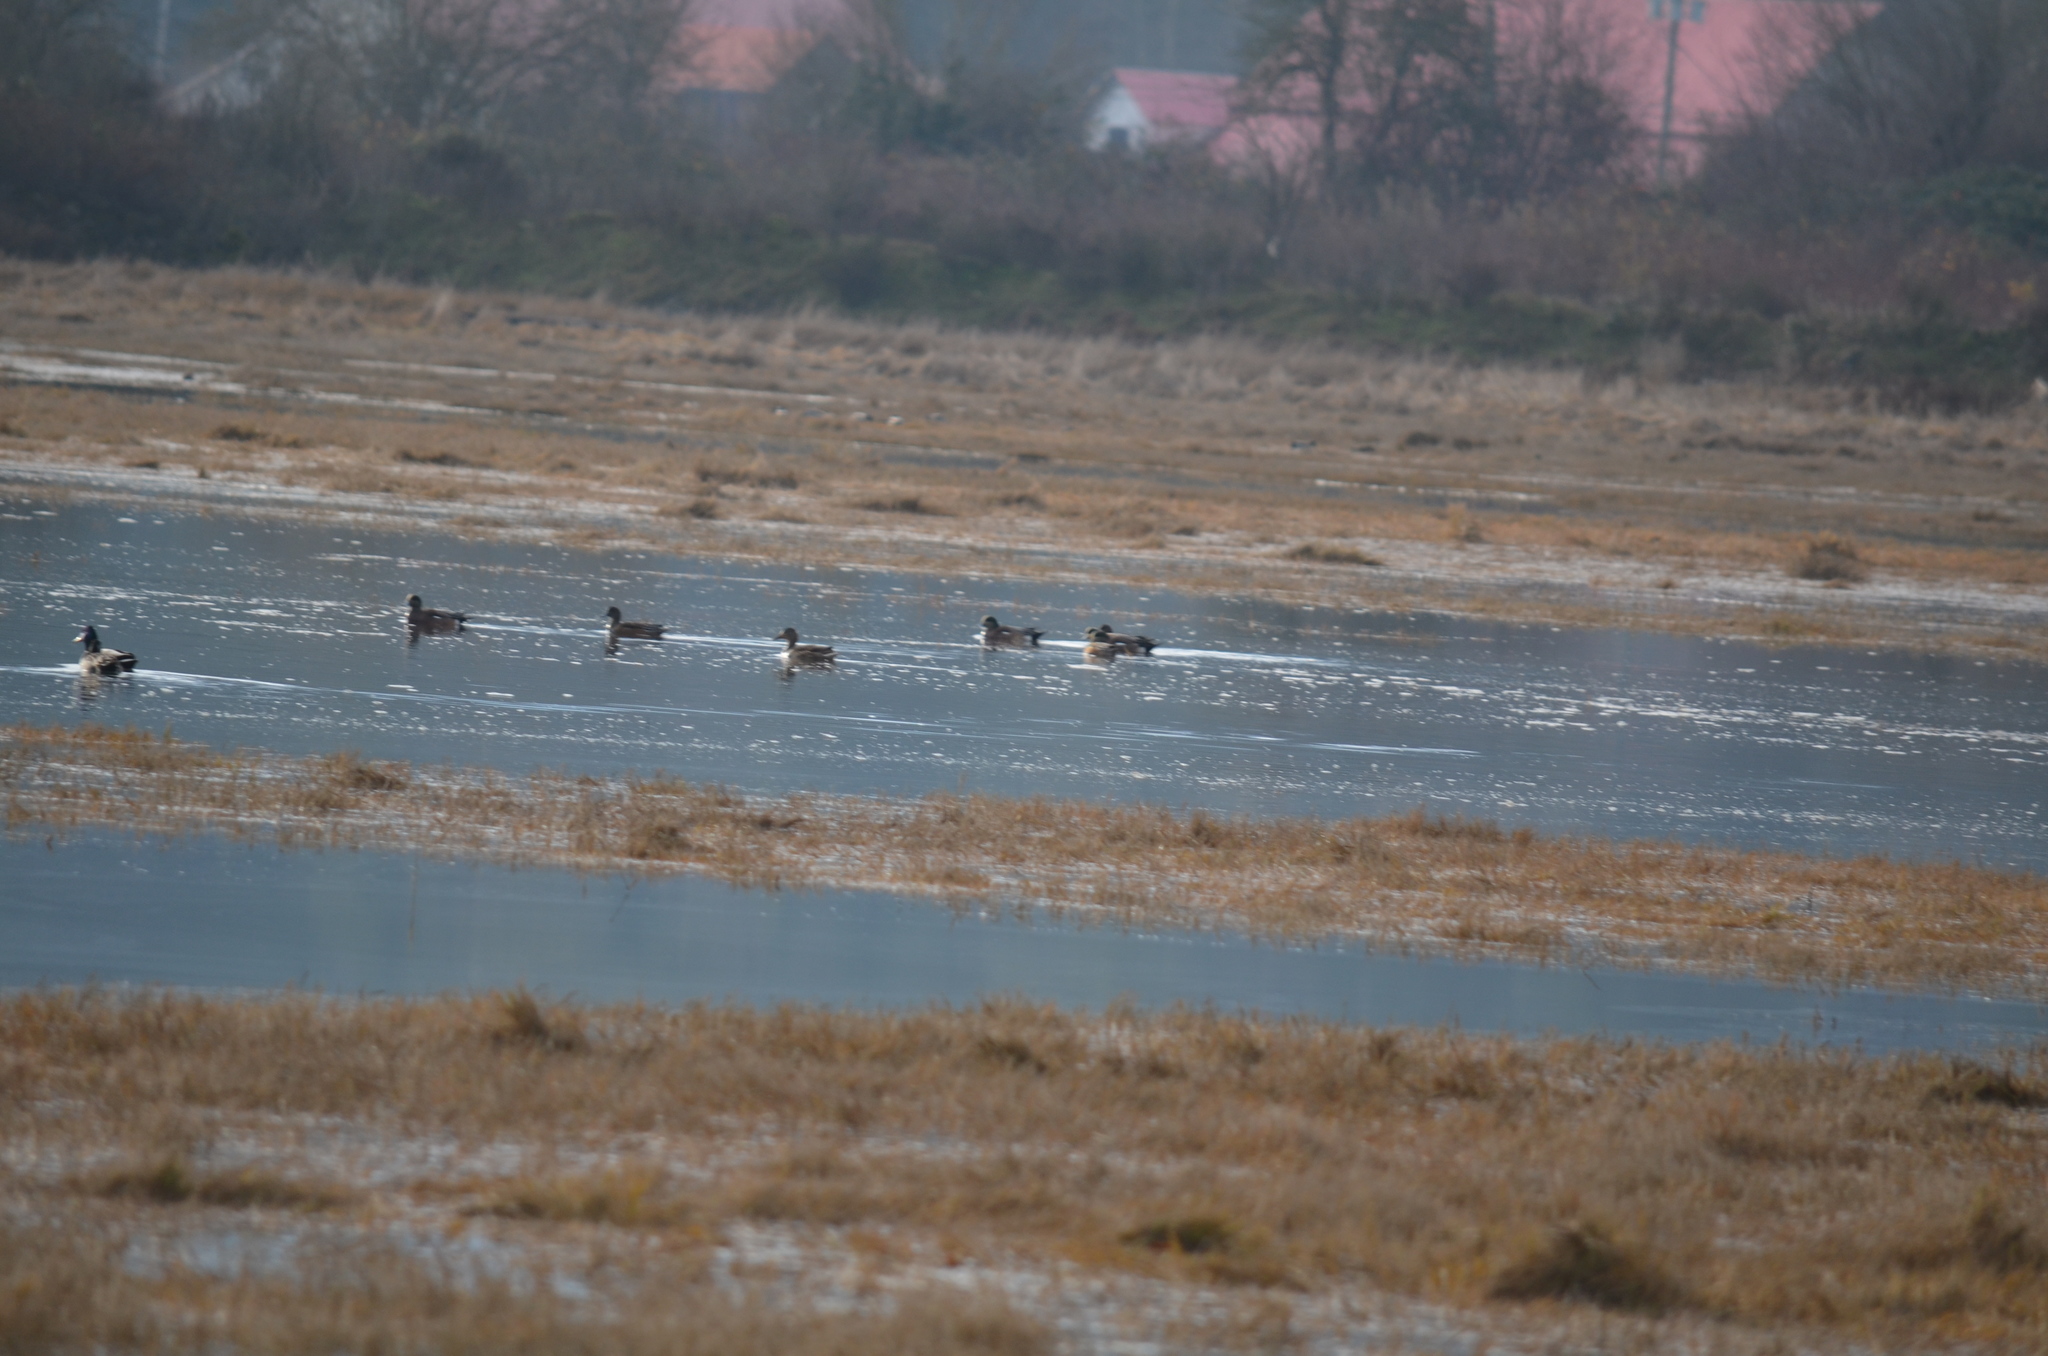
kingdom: Animalia
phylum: Chordata
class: Aves
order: Anseriformes
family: Anatidae
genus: Mareca
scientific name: Mareca americana
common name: American wigeon
